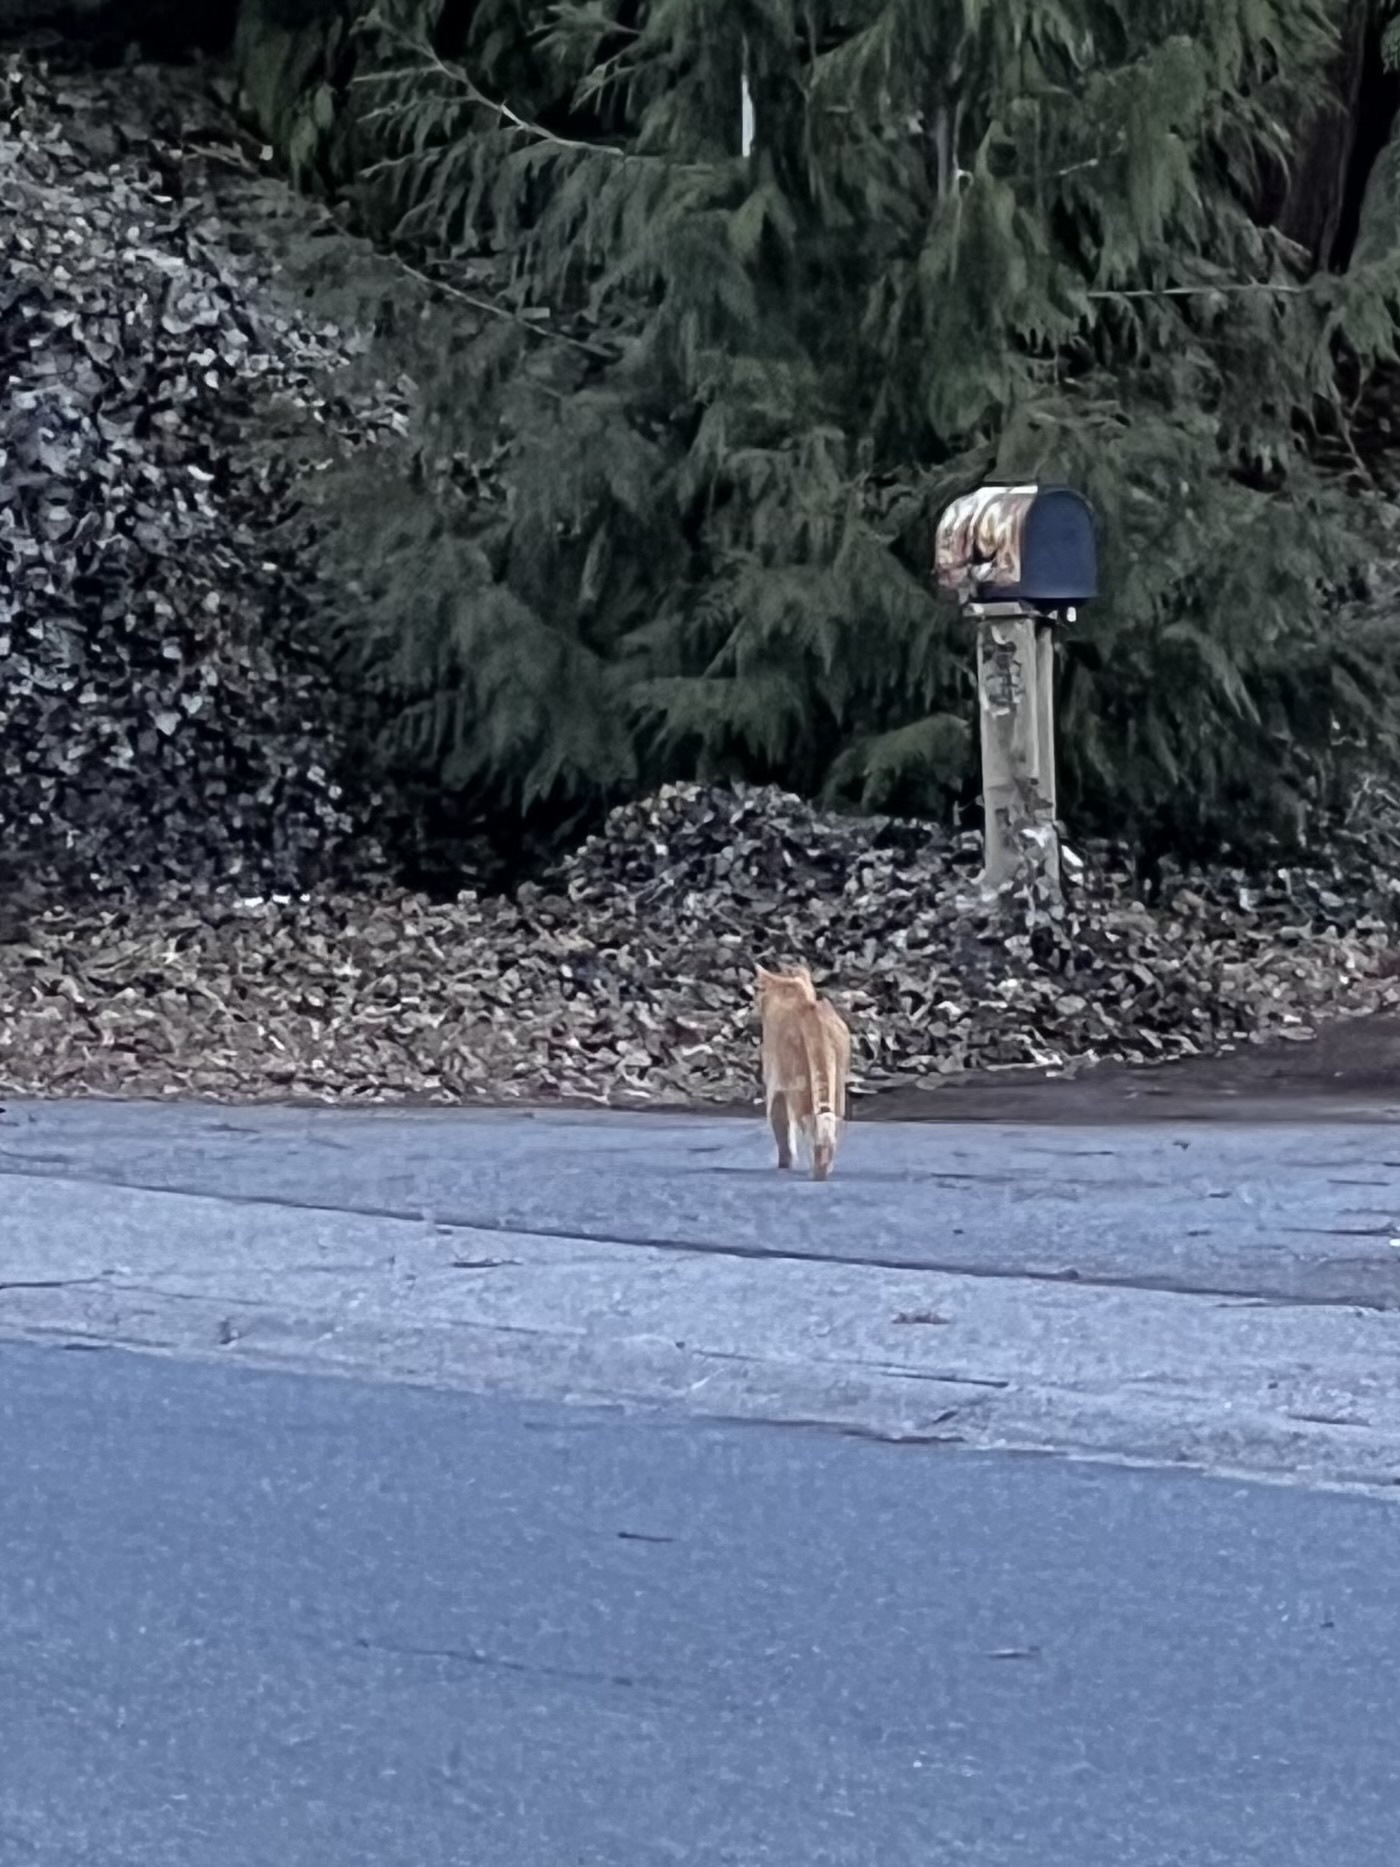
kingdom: Animalia
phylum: Chordata
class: Mammalia
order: Carnivora
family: Felidae
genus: Felis
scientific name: Felis catus
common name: Domestic cat
